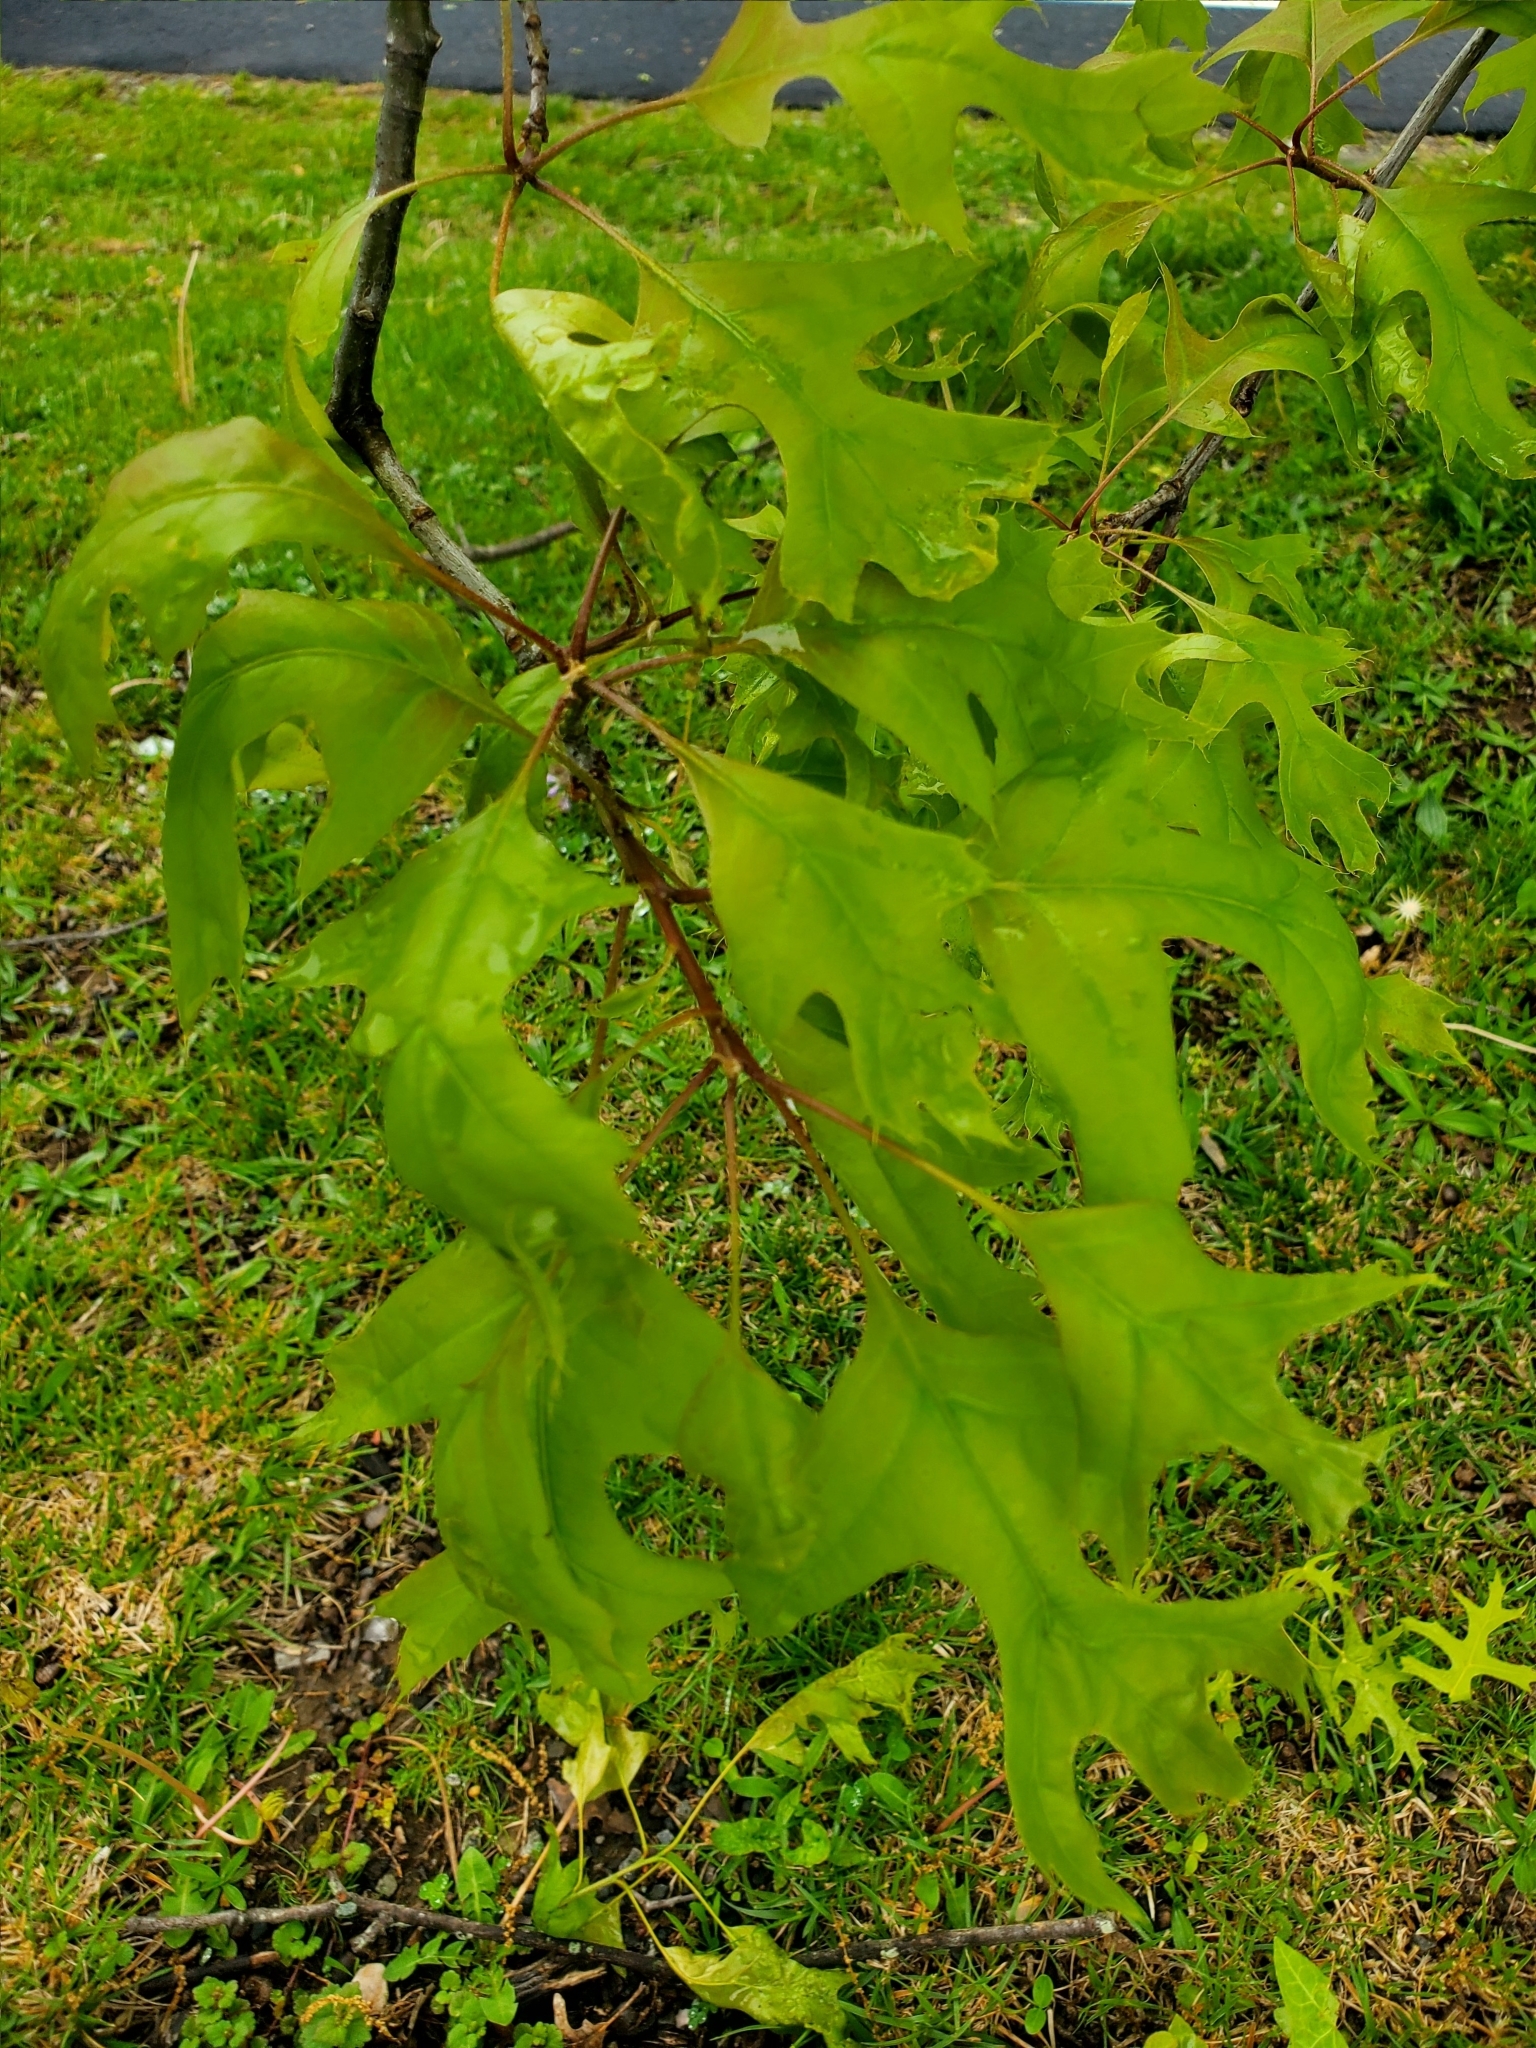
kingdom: Plantae
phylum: Tracheophyta
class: Magnoliopsida
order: Fagales
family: Fagaceae
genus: Quercus
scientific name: Quercus palustris
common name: Pin oak
